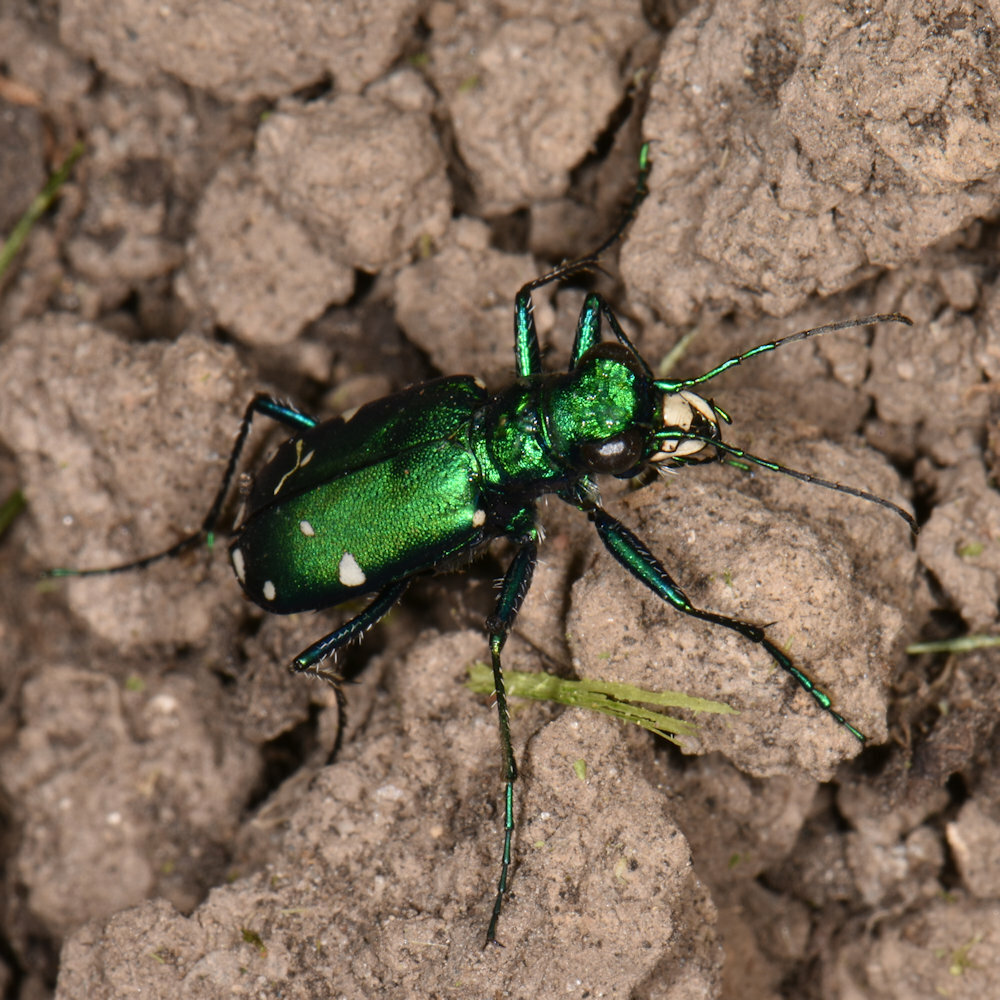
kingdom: Animalia
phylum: Arthropoda
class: Insecta
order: Coleoptera
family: Carabidae
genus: Cicindela
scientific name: Cicindela sexguttata
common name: Six-spotted tiger beetle
